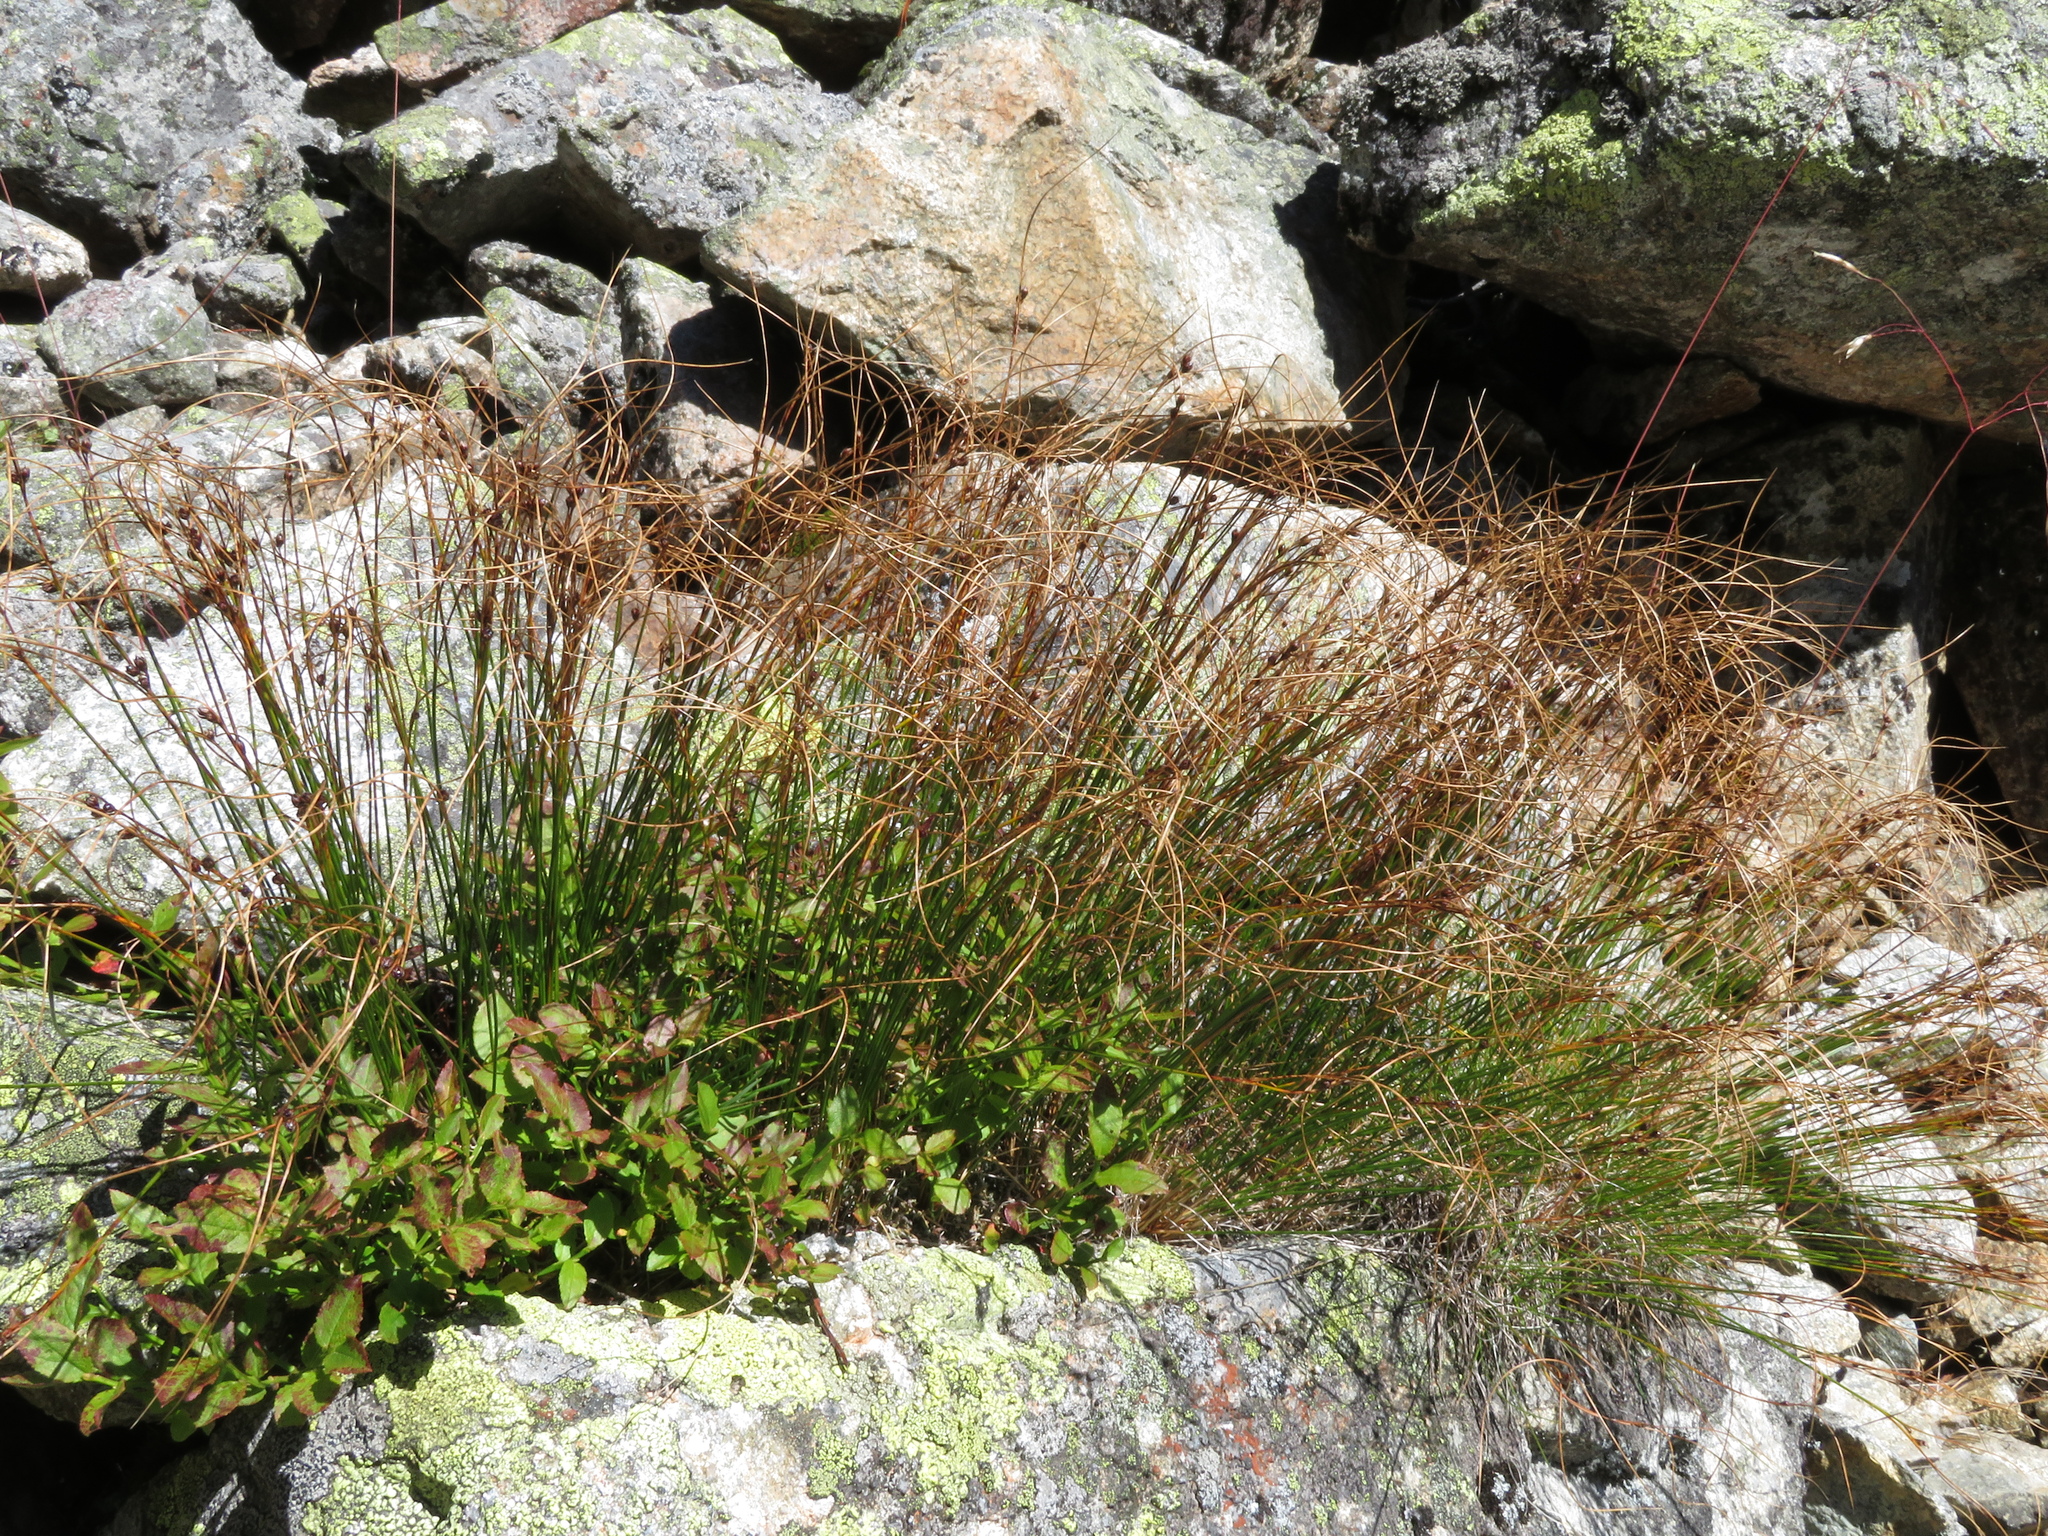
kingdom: Plantae
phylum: Tracheophyta
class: Liliopsida
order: Poales
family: Juncaceae
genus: Oreojuncus
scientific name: Oreojuncus trifidus
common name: Highland rush
